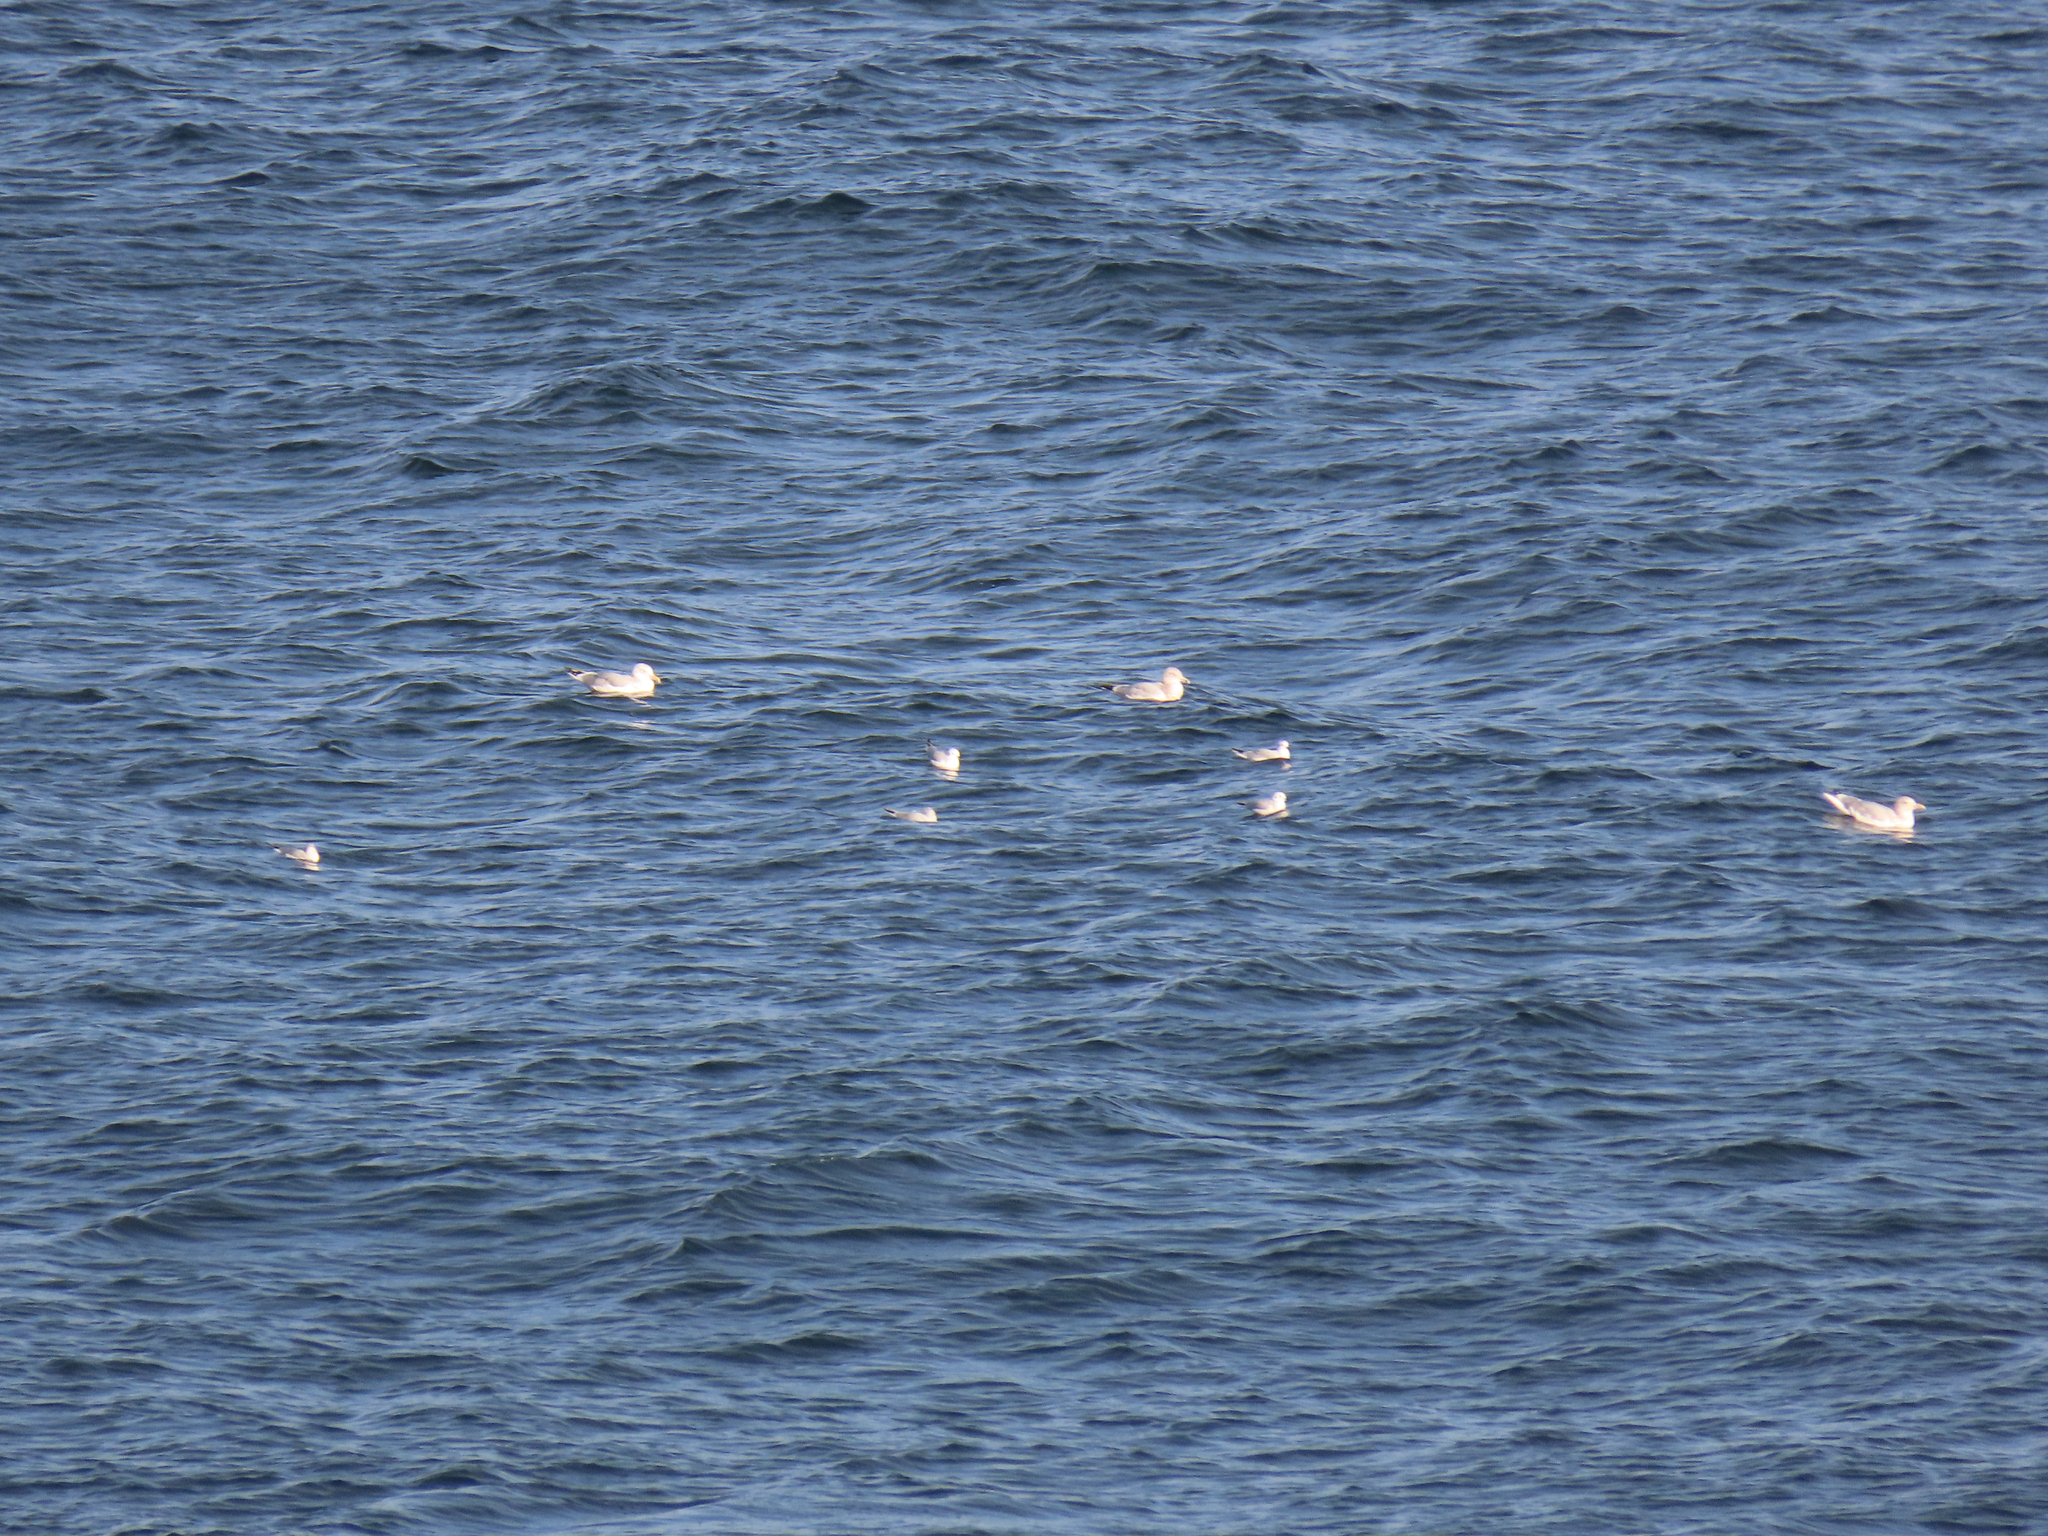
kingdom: Animalia
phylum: Chordata
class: Aves
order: Charadriiformes
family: Laridae
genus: Chroicocephalus
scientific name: Chroicocephalus philadelphia
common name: Bonaparte's gull
